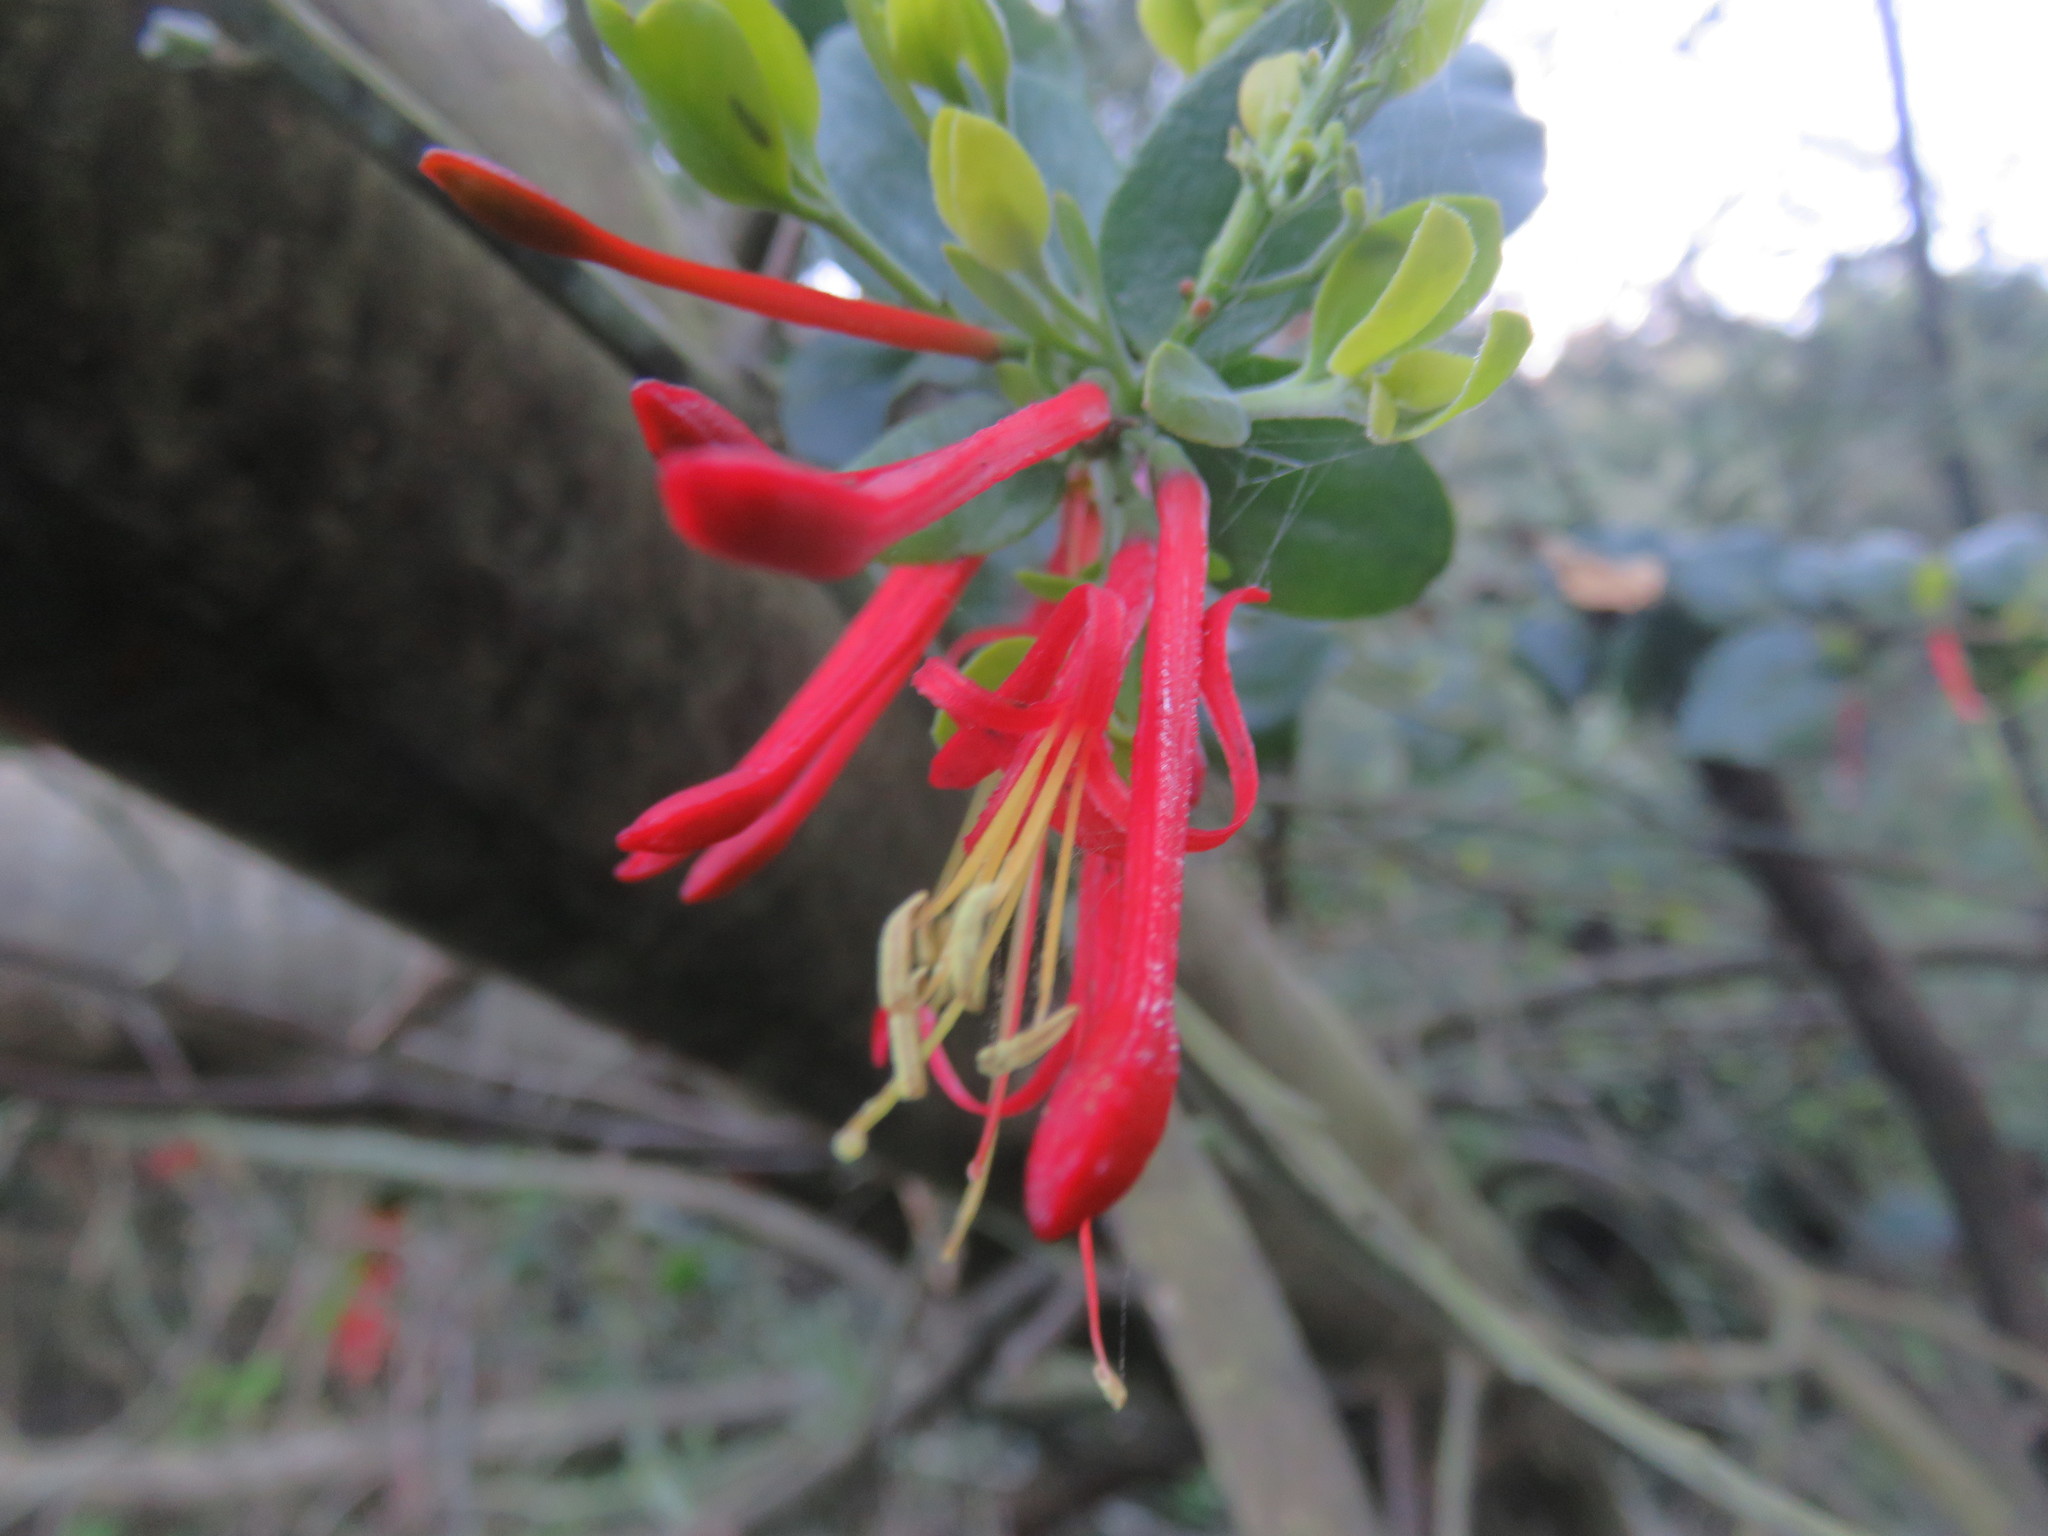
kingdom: Plantae
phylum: Tracheophyta
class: Magnoliopsida
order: Santalales
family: Loranthaceae
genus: Tristerix
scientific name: Tristerix corymbosus
